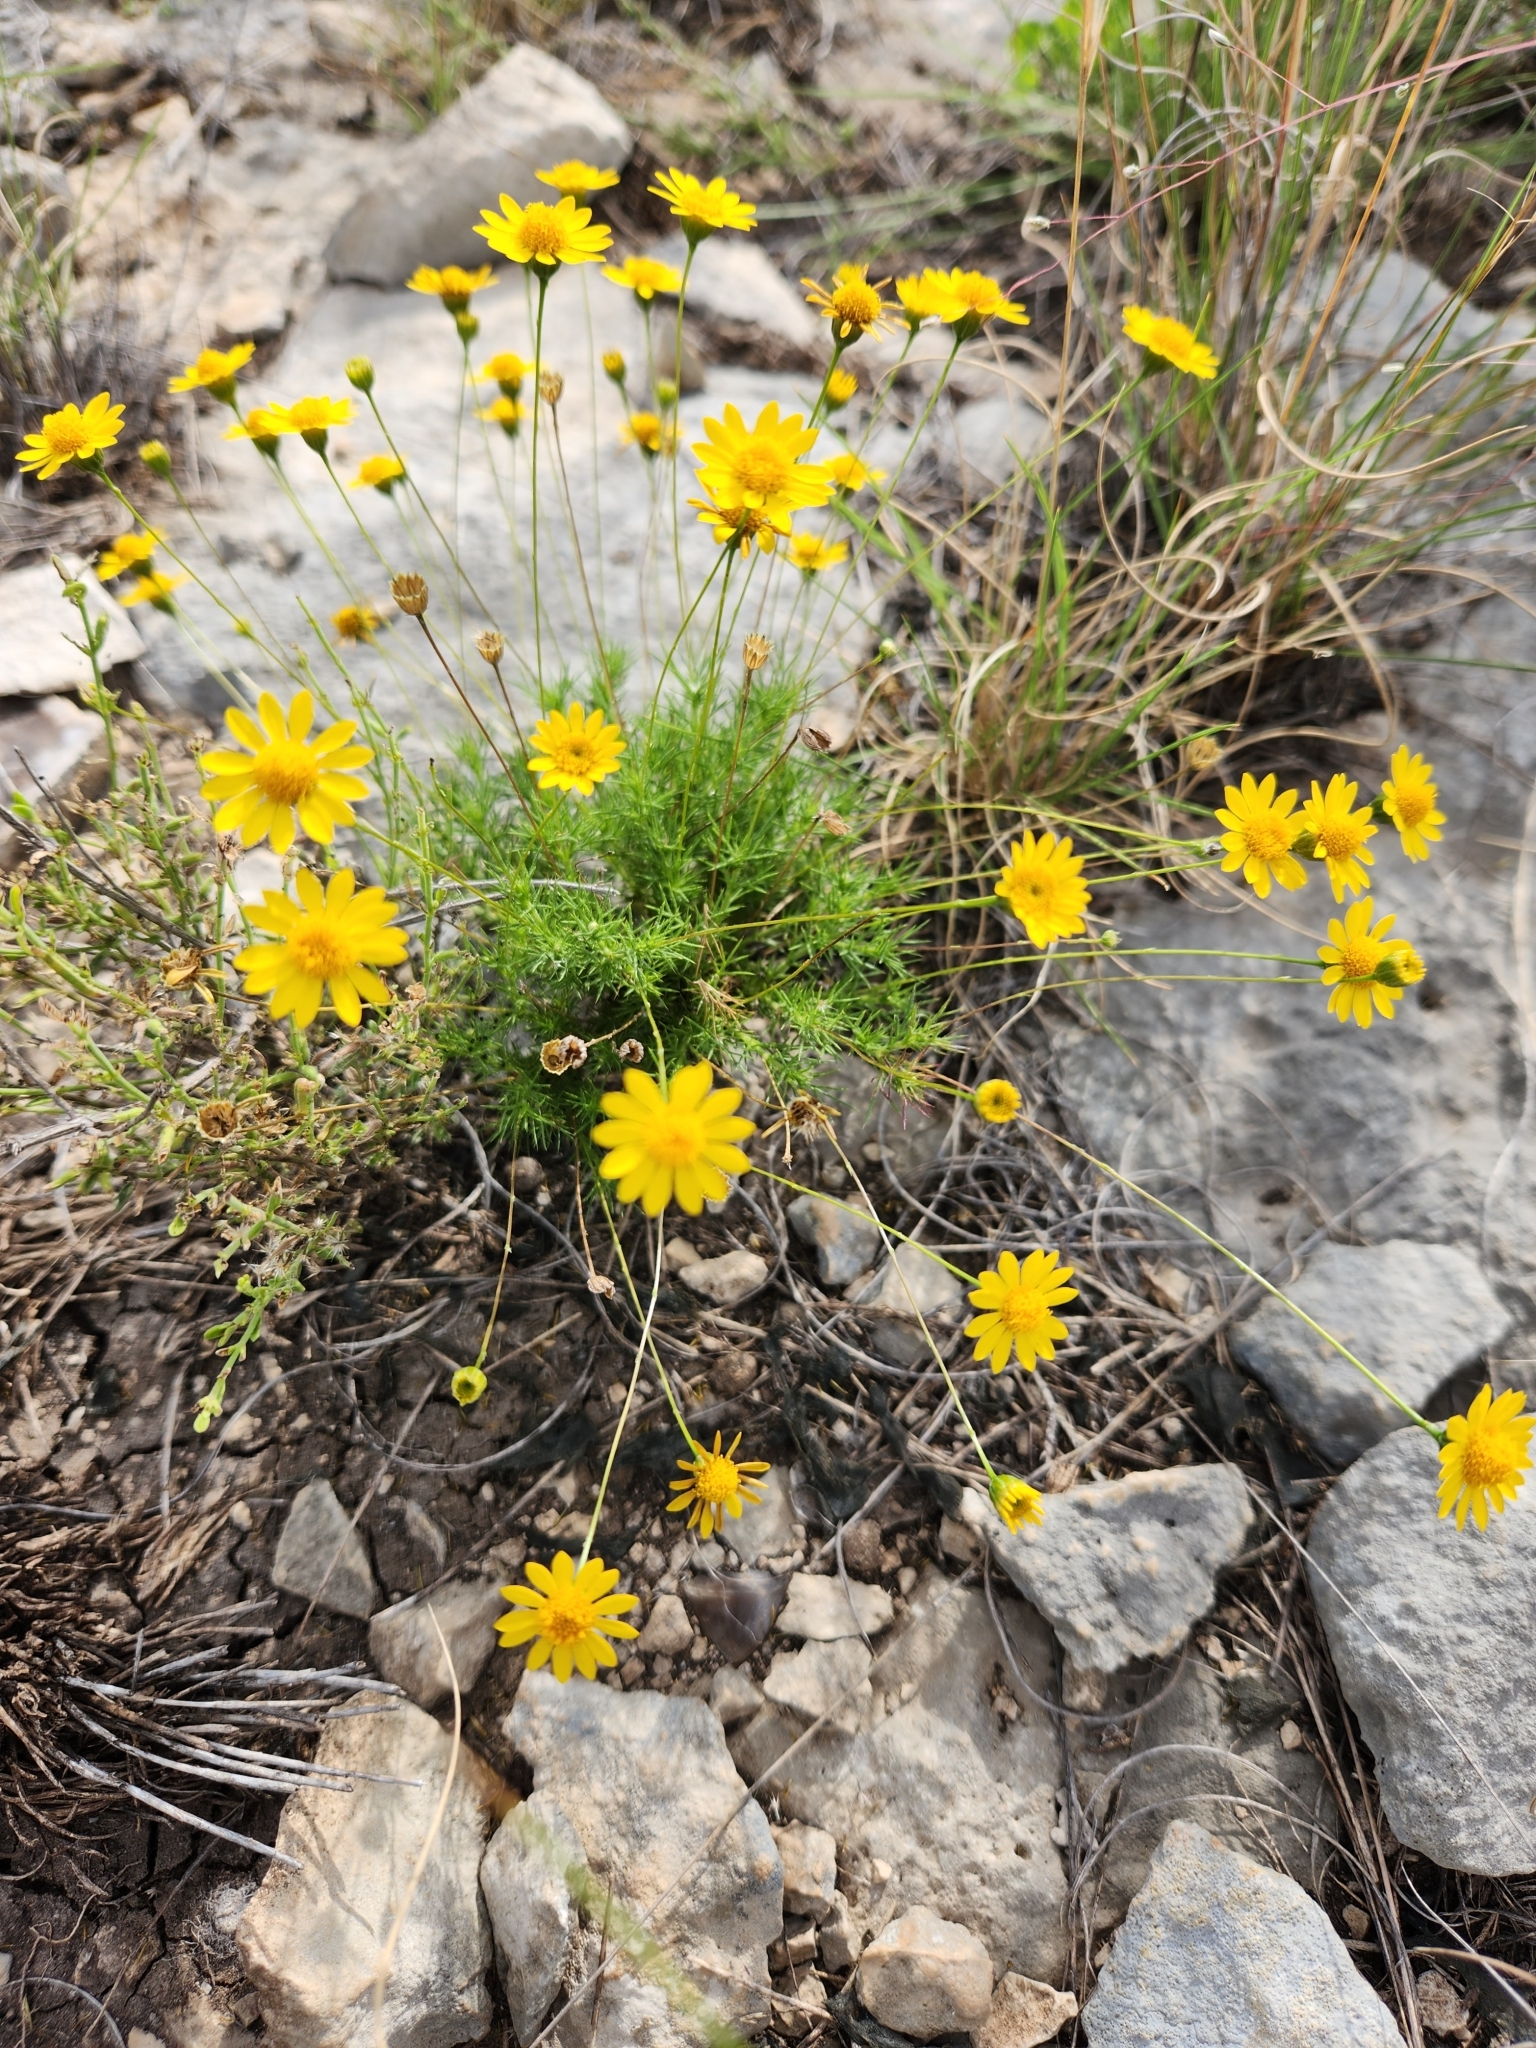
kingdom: Plantae
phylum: Tracheophyta
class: Magnoliopsida
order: Asterales
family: Asteraceae
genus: Thymophylla
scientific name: Thymophylla pentachaeta
